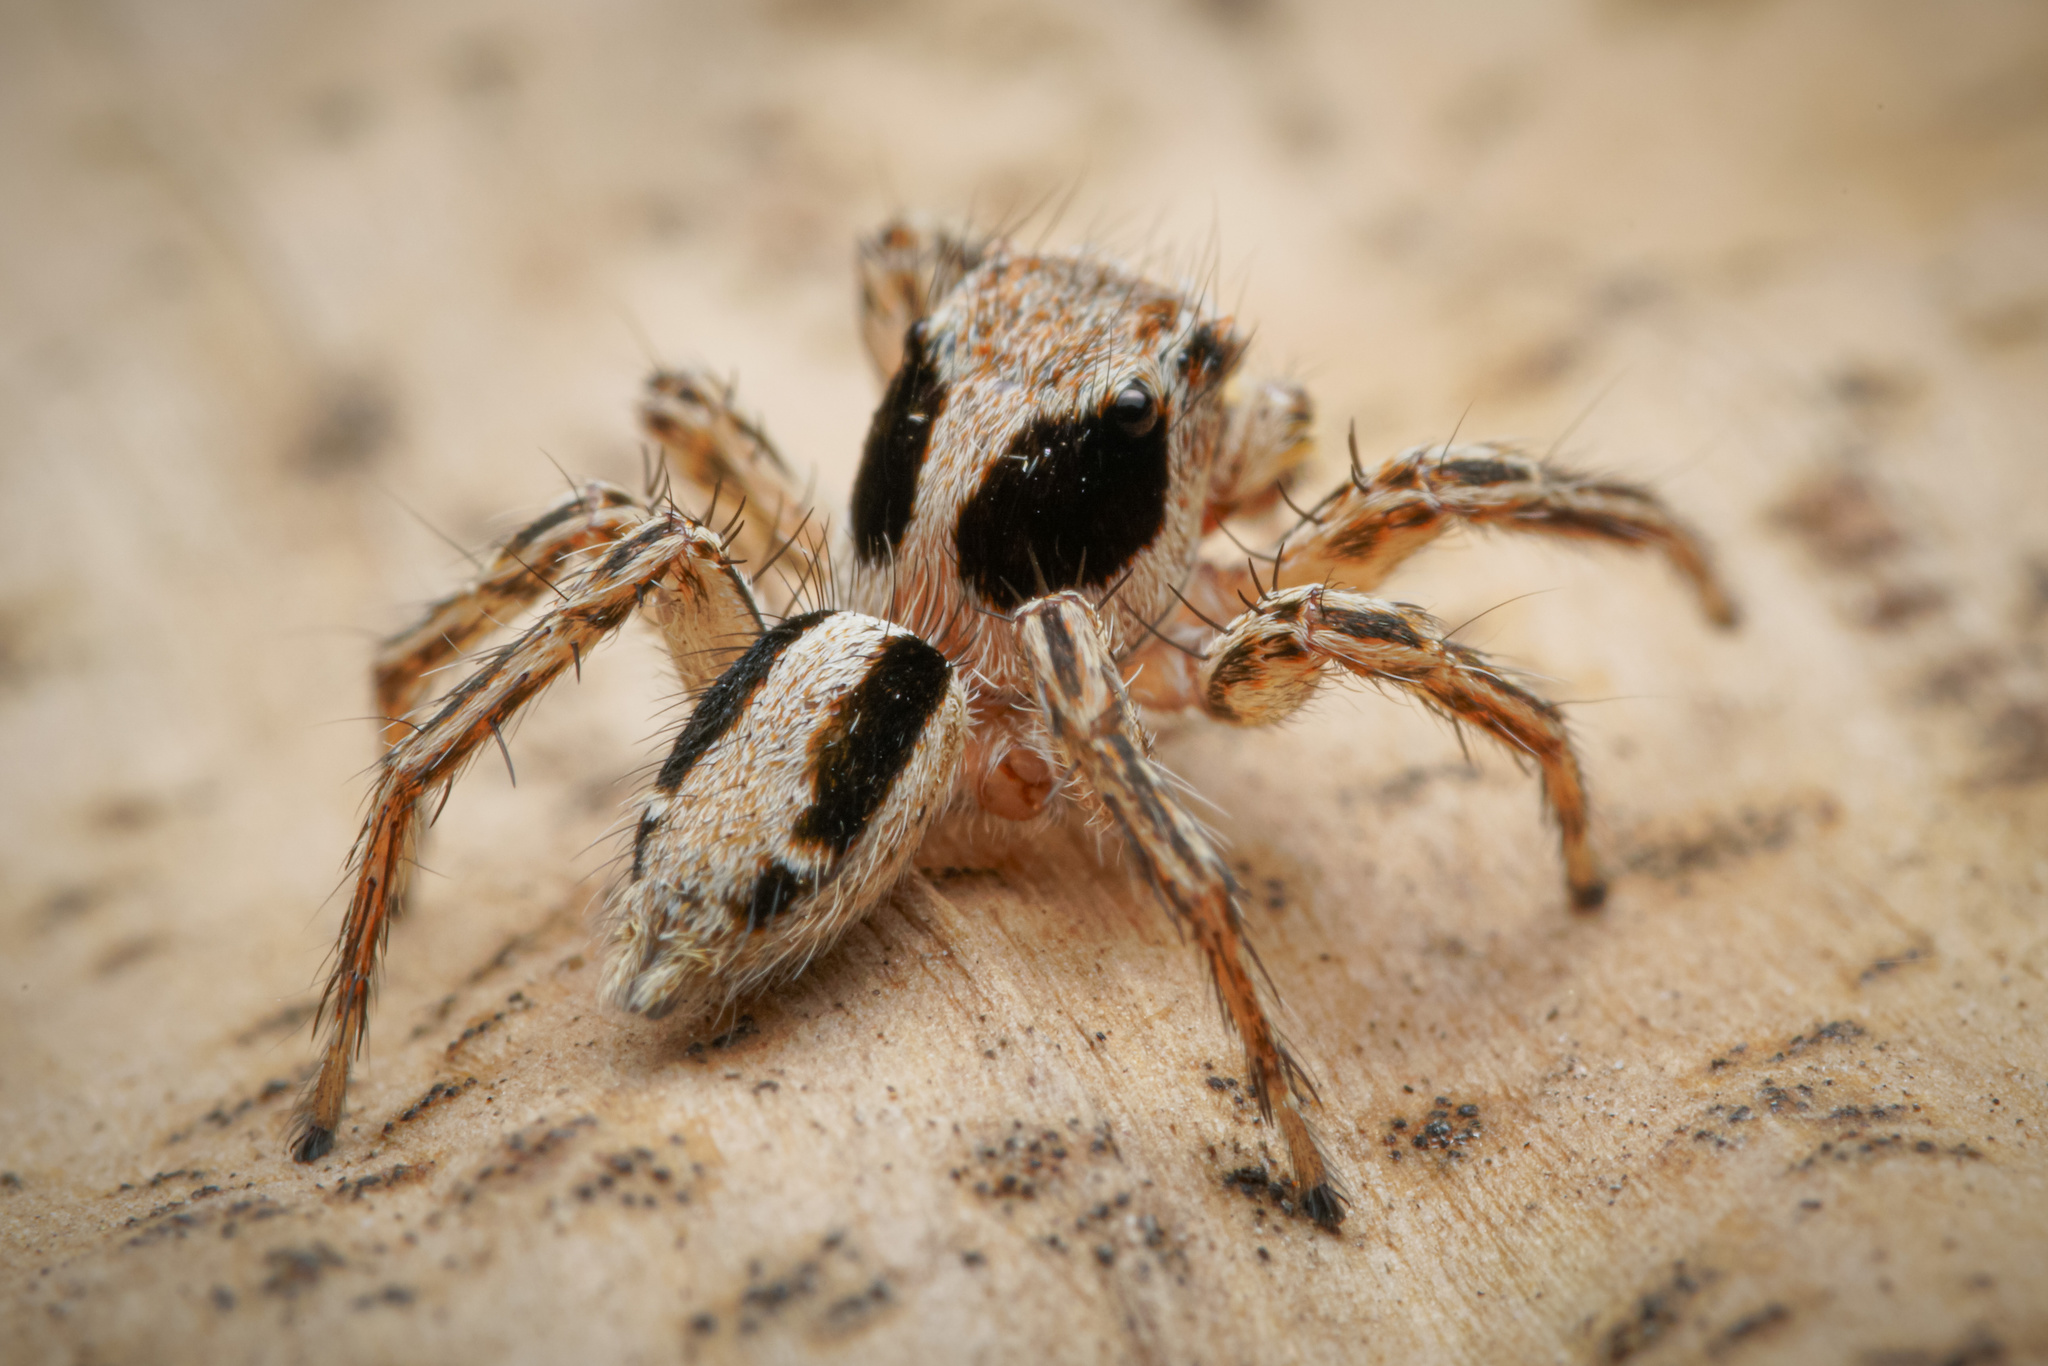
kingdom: Animalia
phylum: Arthropoda
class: Arachnida
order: Araneae
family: Salticidae
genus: Plexippus
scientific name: Plexippus petersi
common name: Jumping spider
